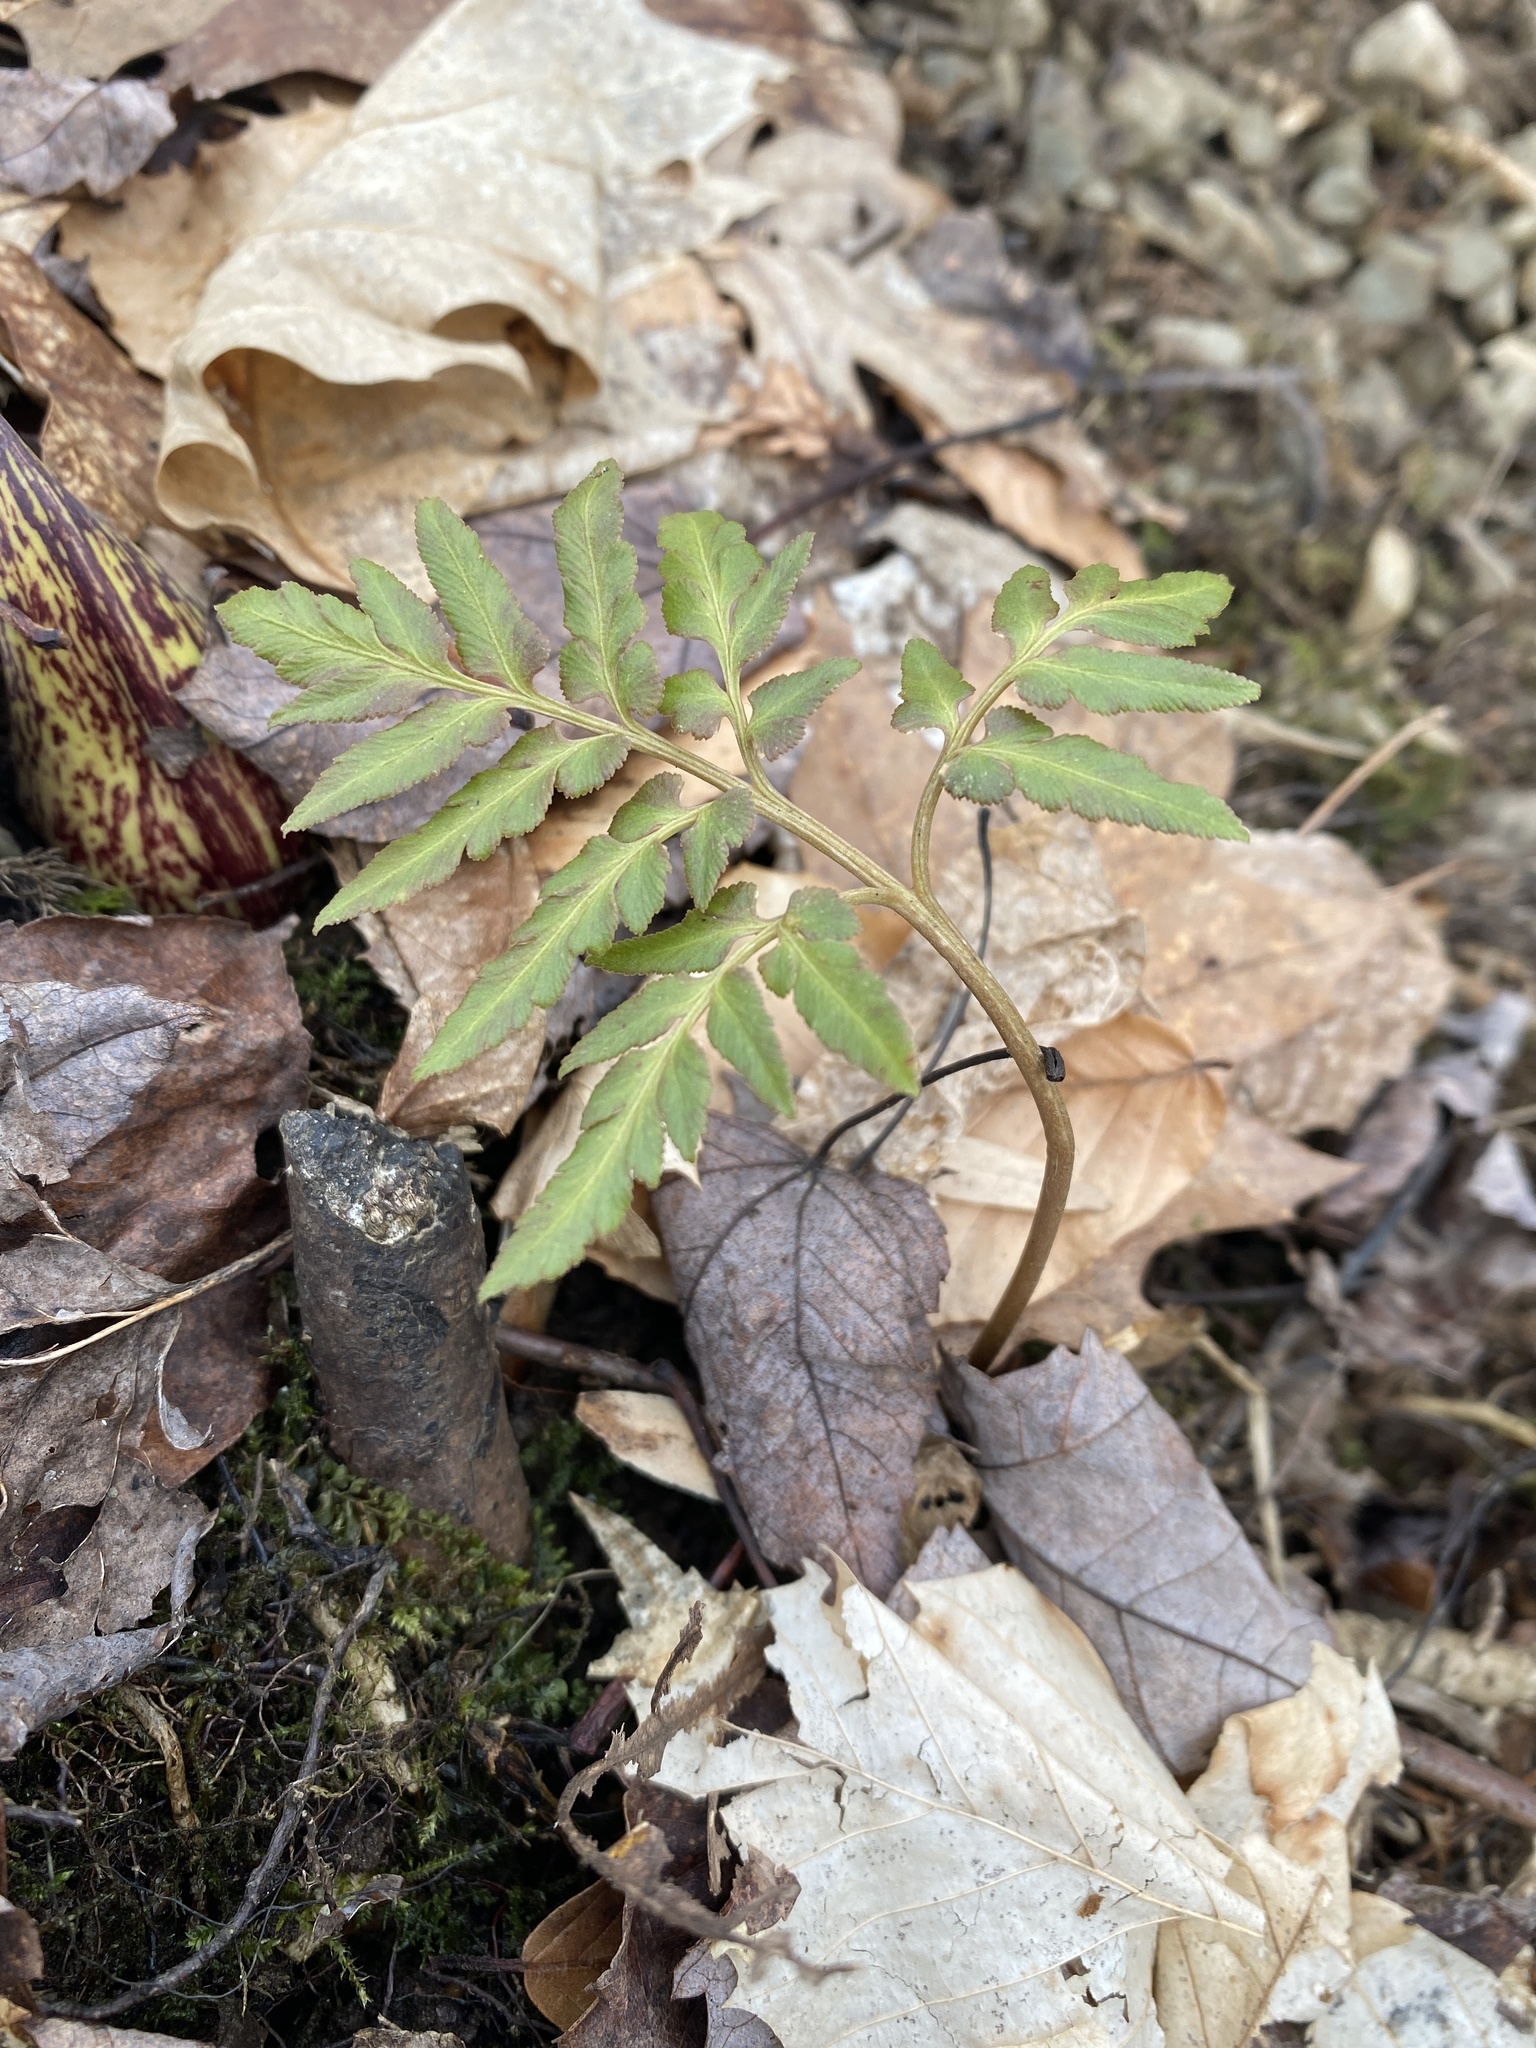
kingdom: Plantae
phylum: Tracheophyta
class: Polypodiopsida
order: Ophioglossales
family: Ophioglossaceae
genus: Sceptridium
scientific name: Sceptridium dissectum
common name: Cut-leaved grapefern
